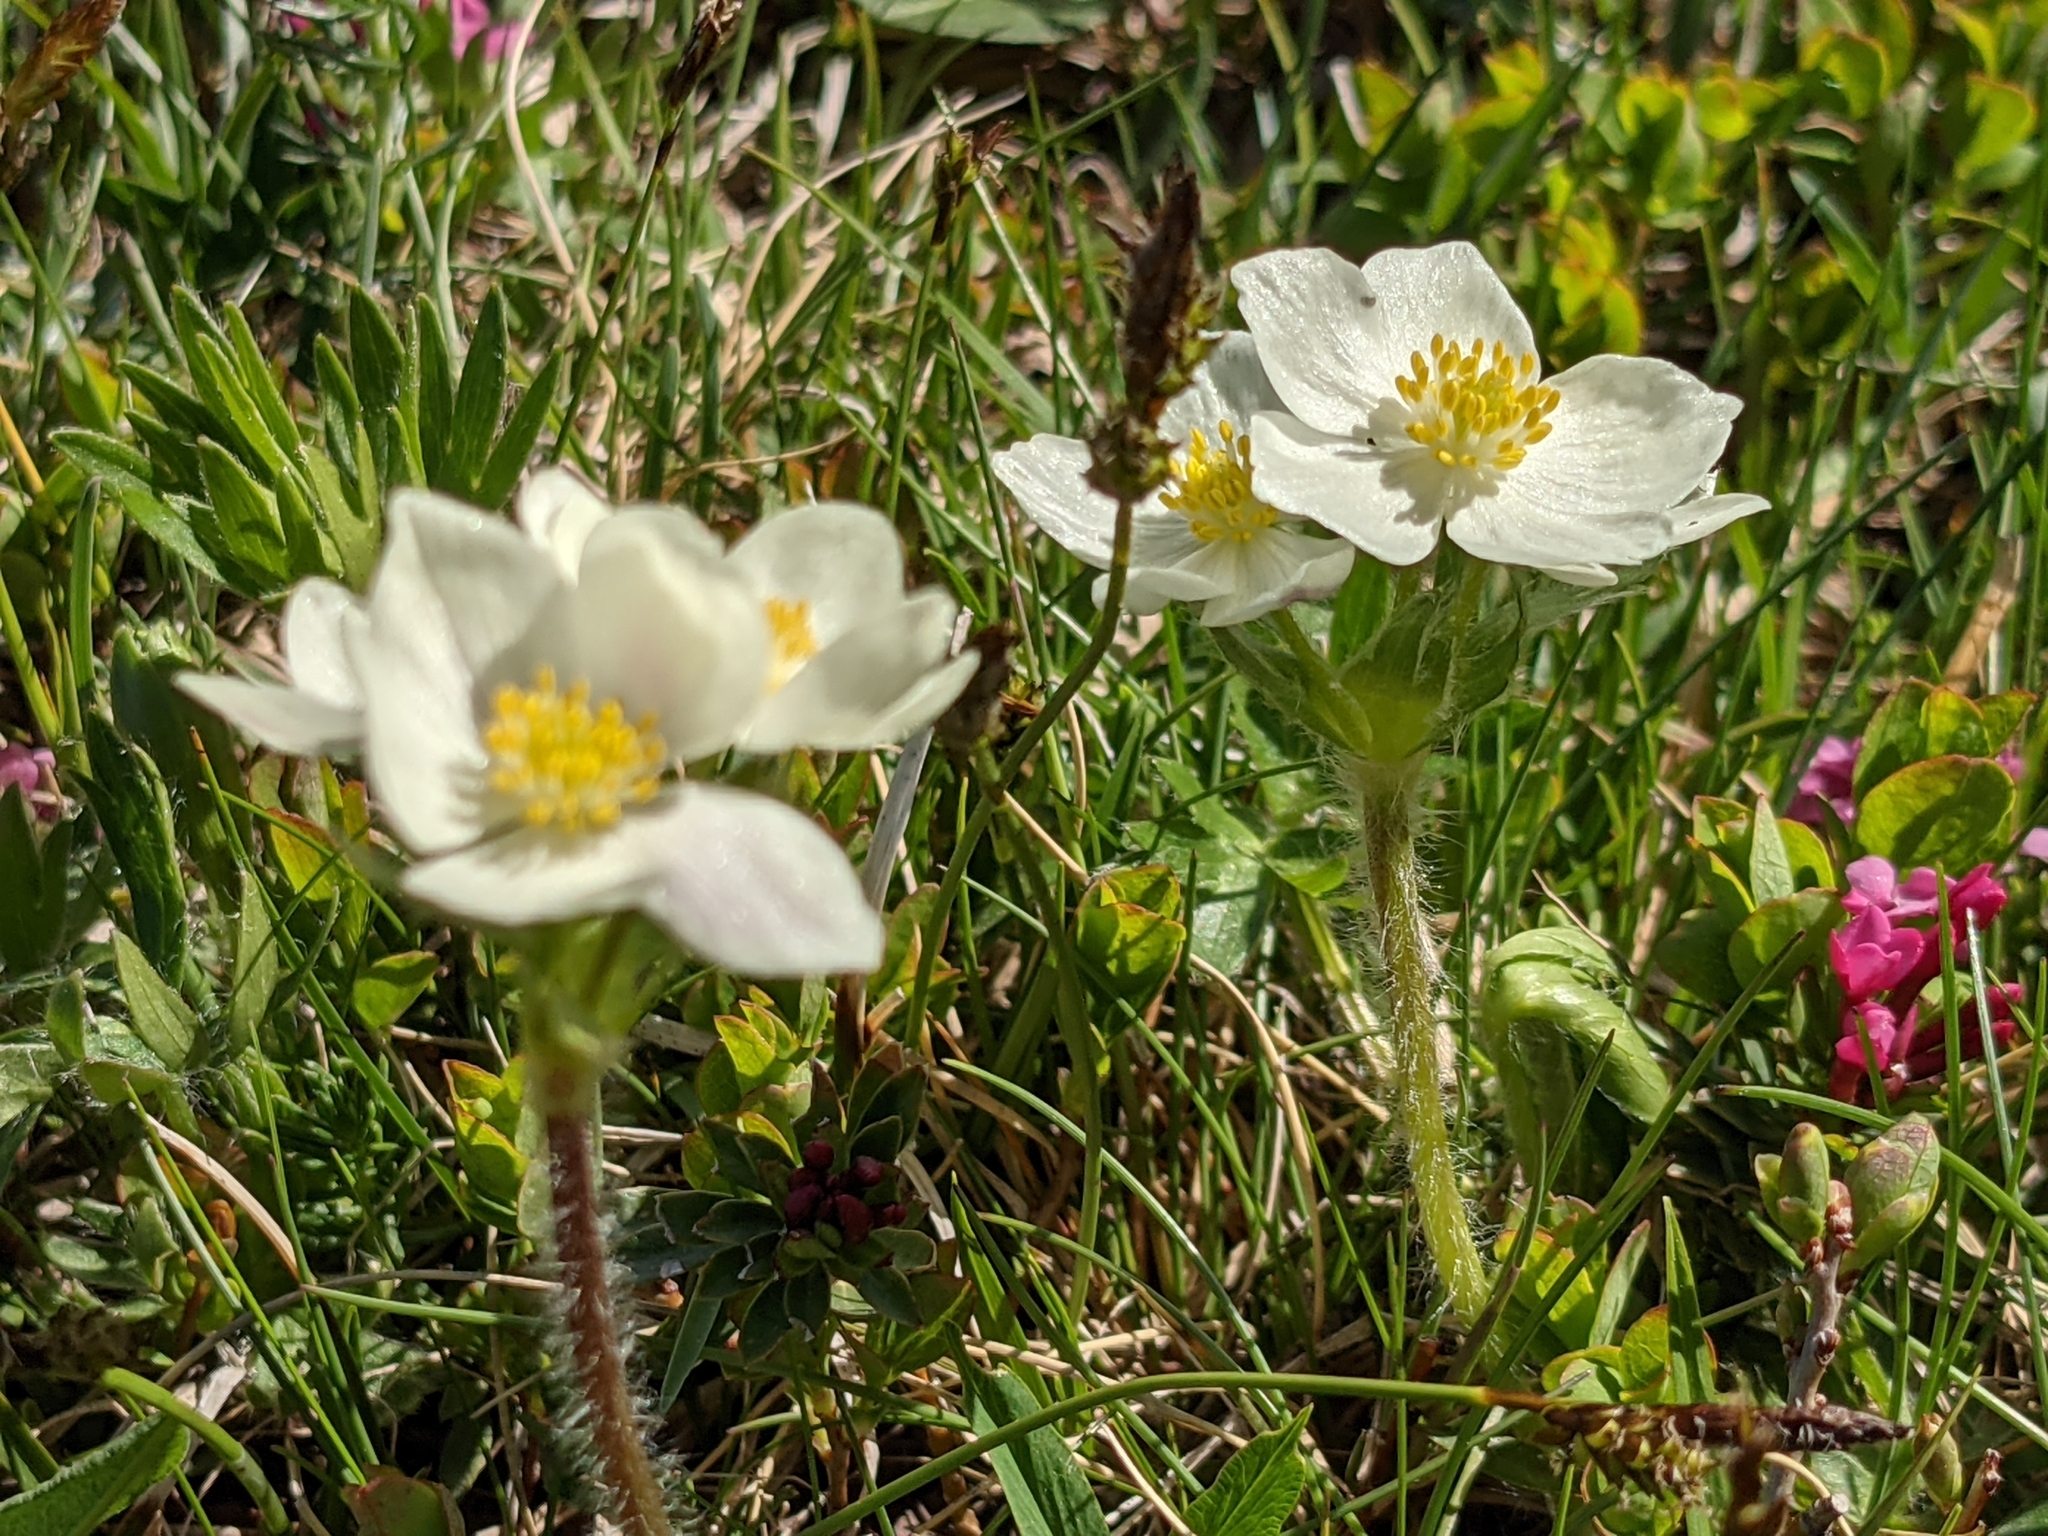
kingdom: Plantae
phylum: Tracheophyta
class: Magnoliopsida
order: Ranunculales
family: Ranunculaceae
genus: Anemonastrum
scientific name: Anemonastrum narcissiflorum
